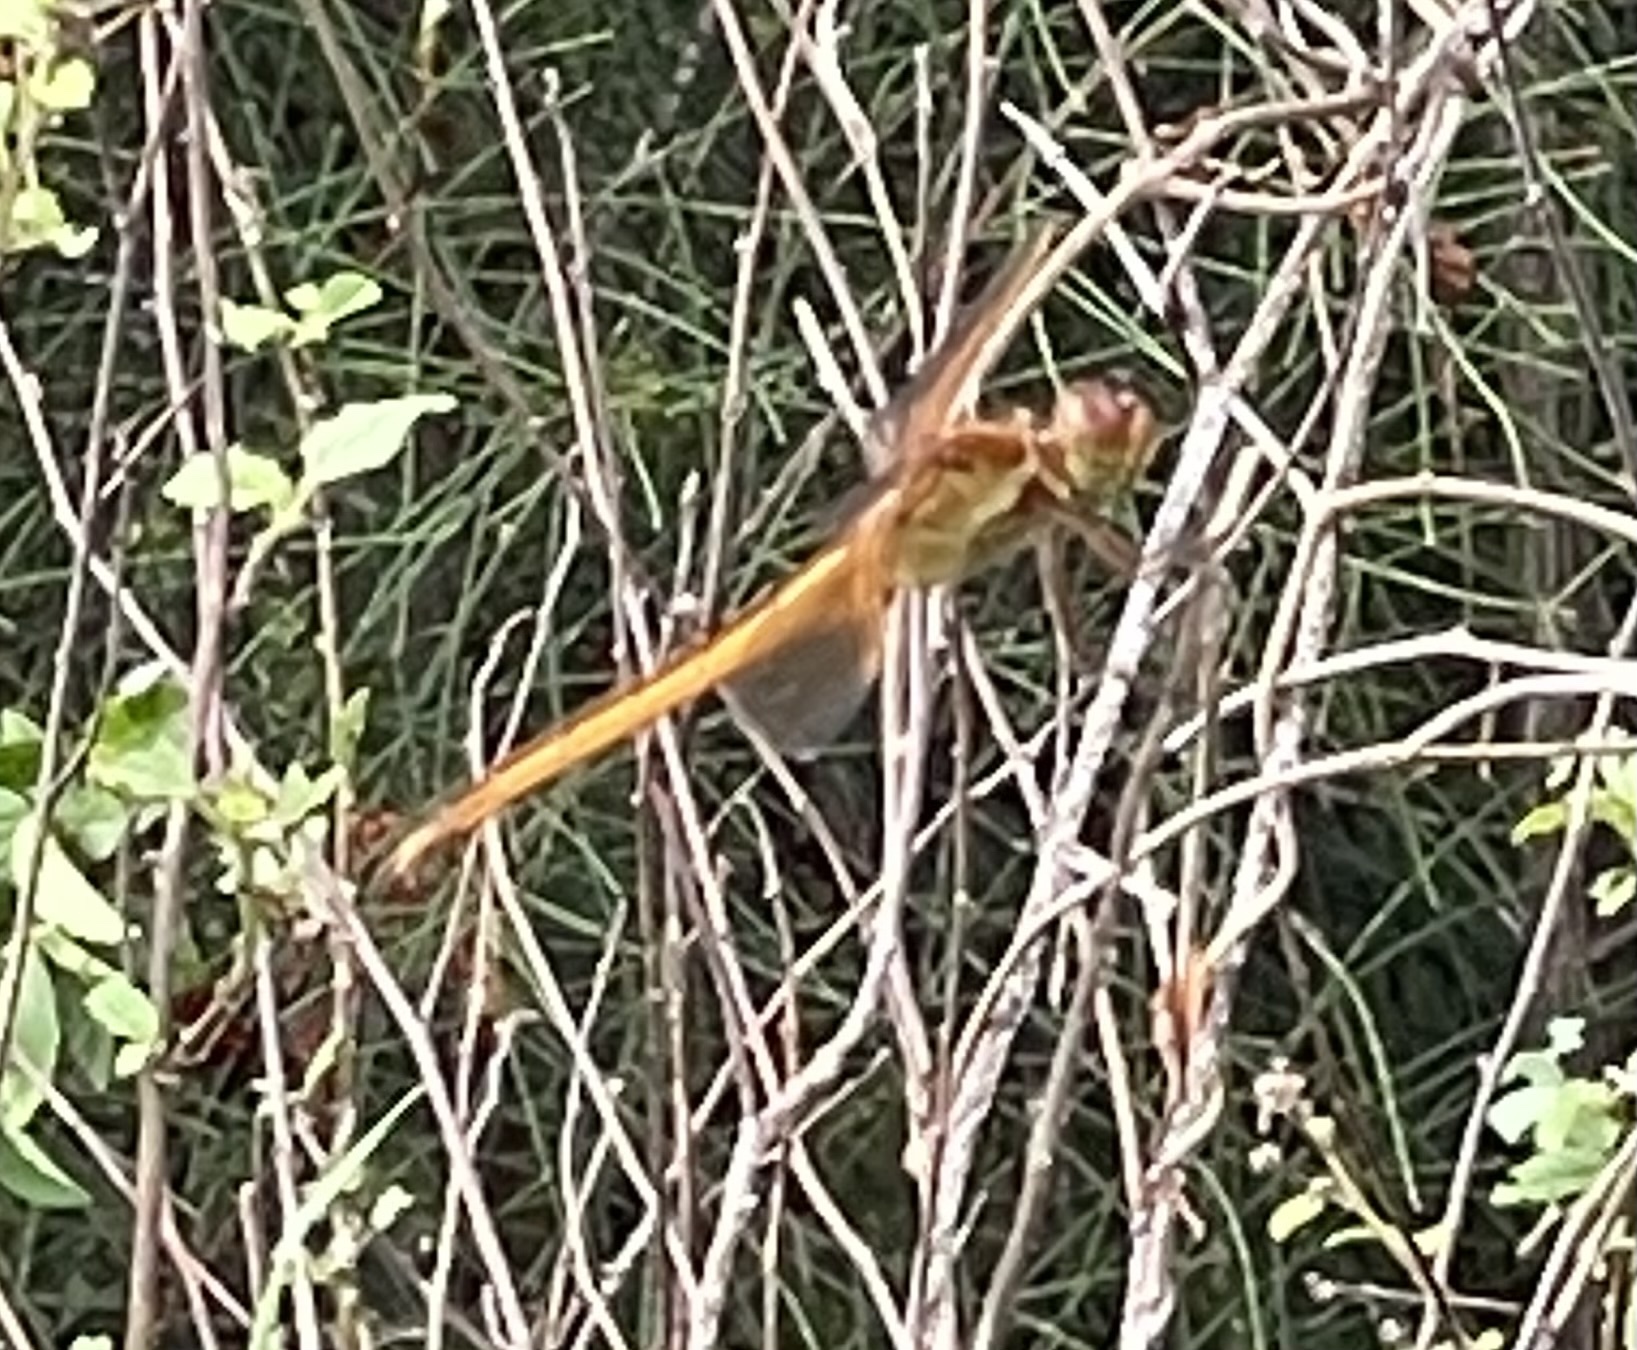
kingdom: Animalia
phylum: Arthropoda
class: Insecta
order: Odonata
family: Libellulidae
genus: Libellula
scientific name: Libellula needhami
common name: Needham's skimmer
